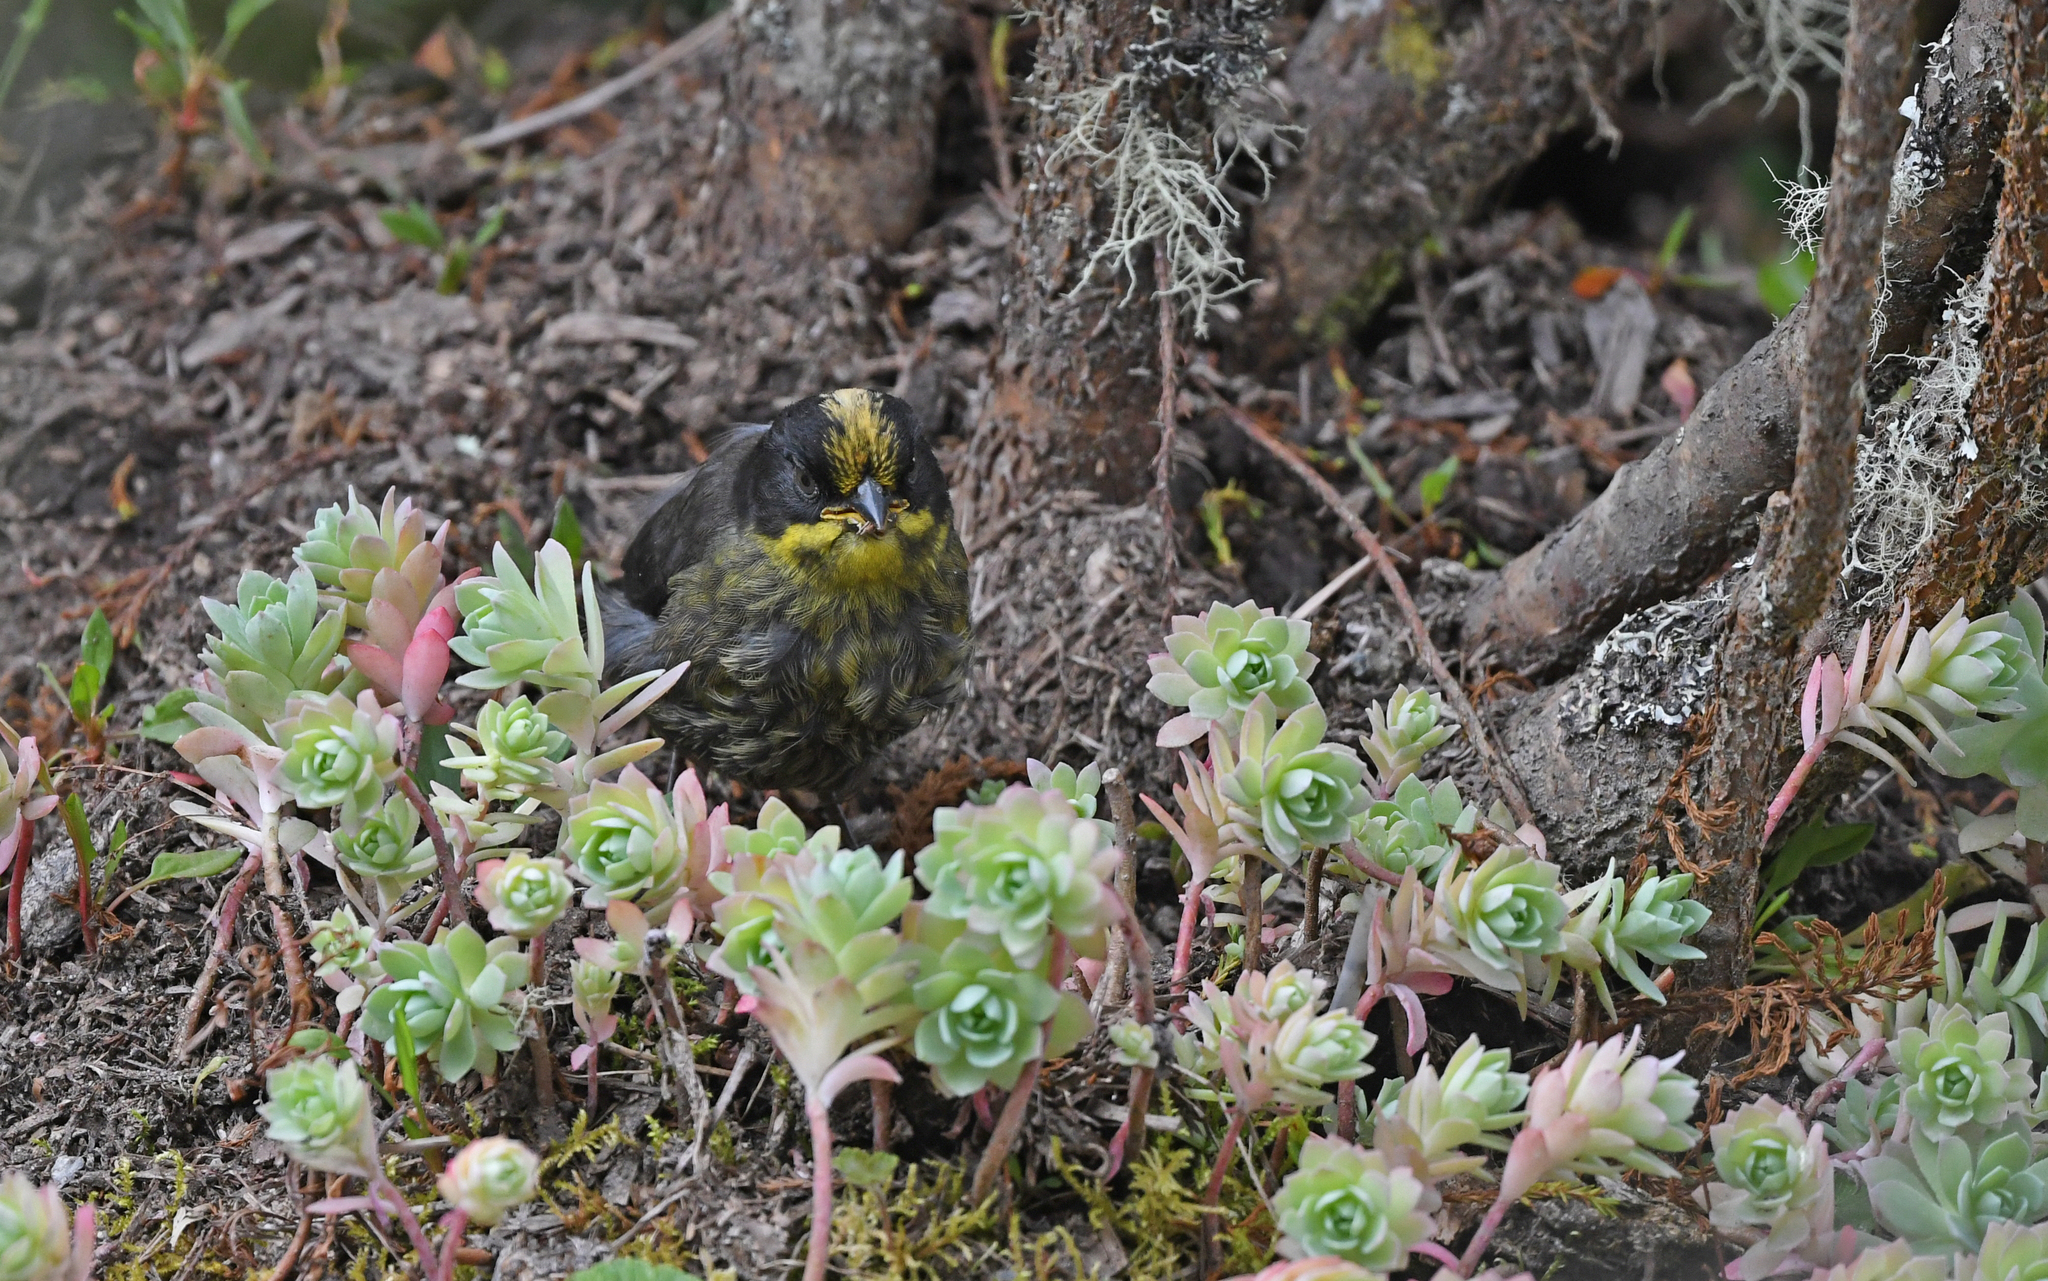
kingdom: Animalia
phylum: Chordata
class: Aves
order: Passeriformes
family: Passerellidae
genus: Atlapetes
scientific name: Atlapetes pallidinucha
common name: Pale-naped brushfinch
